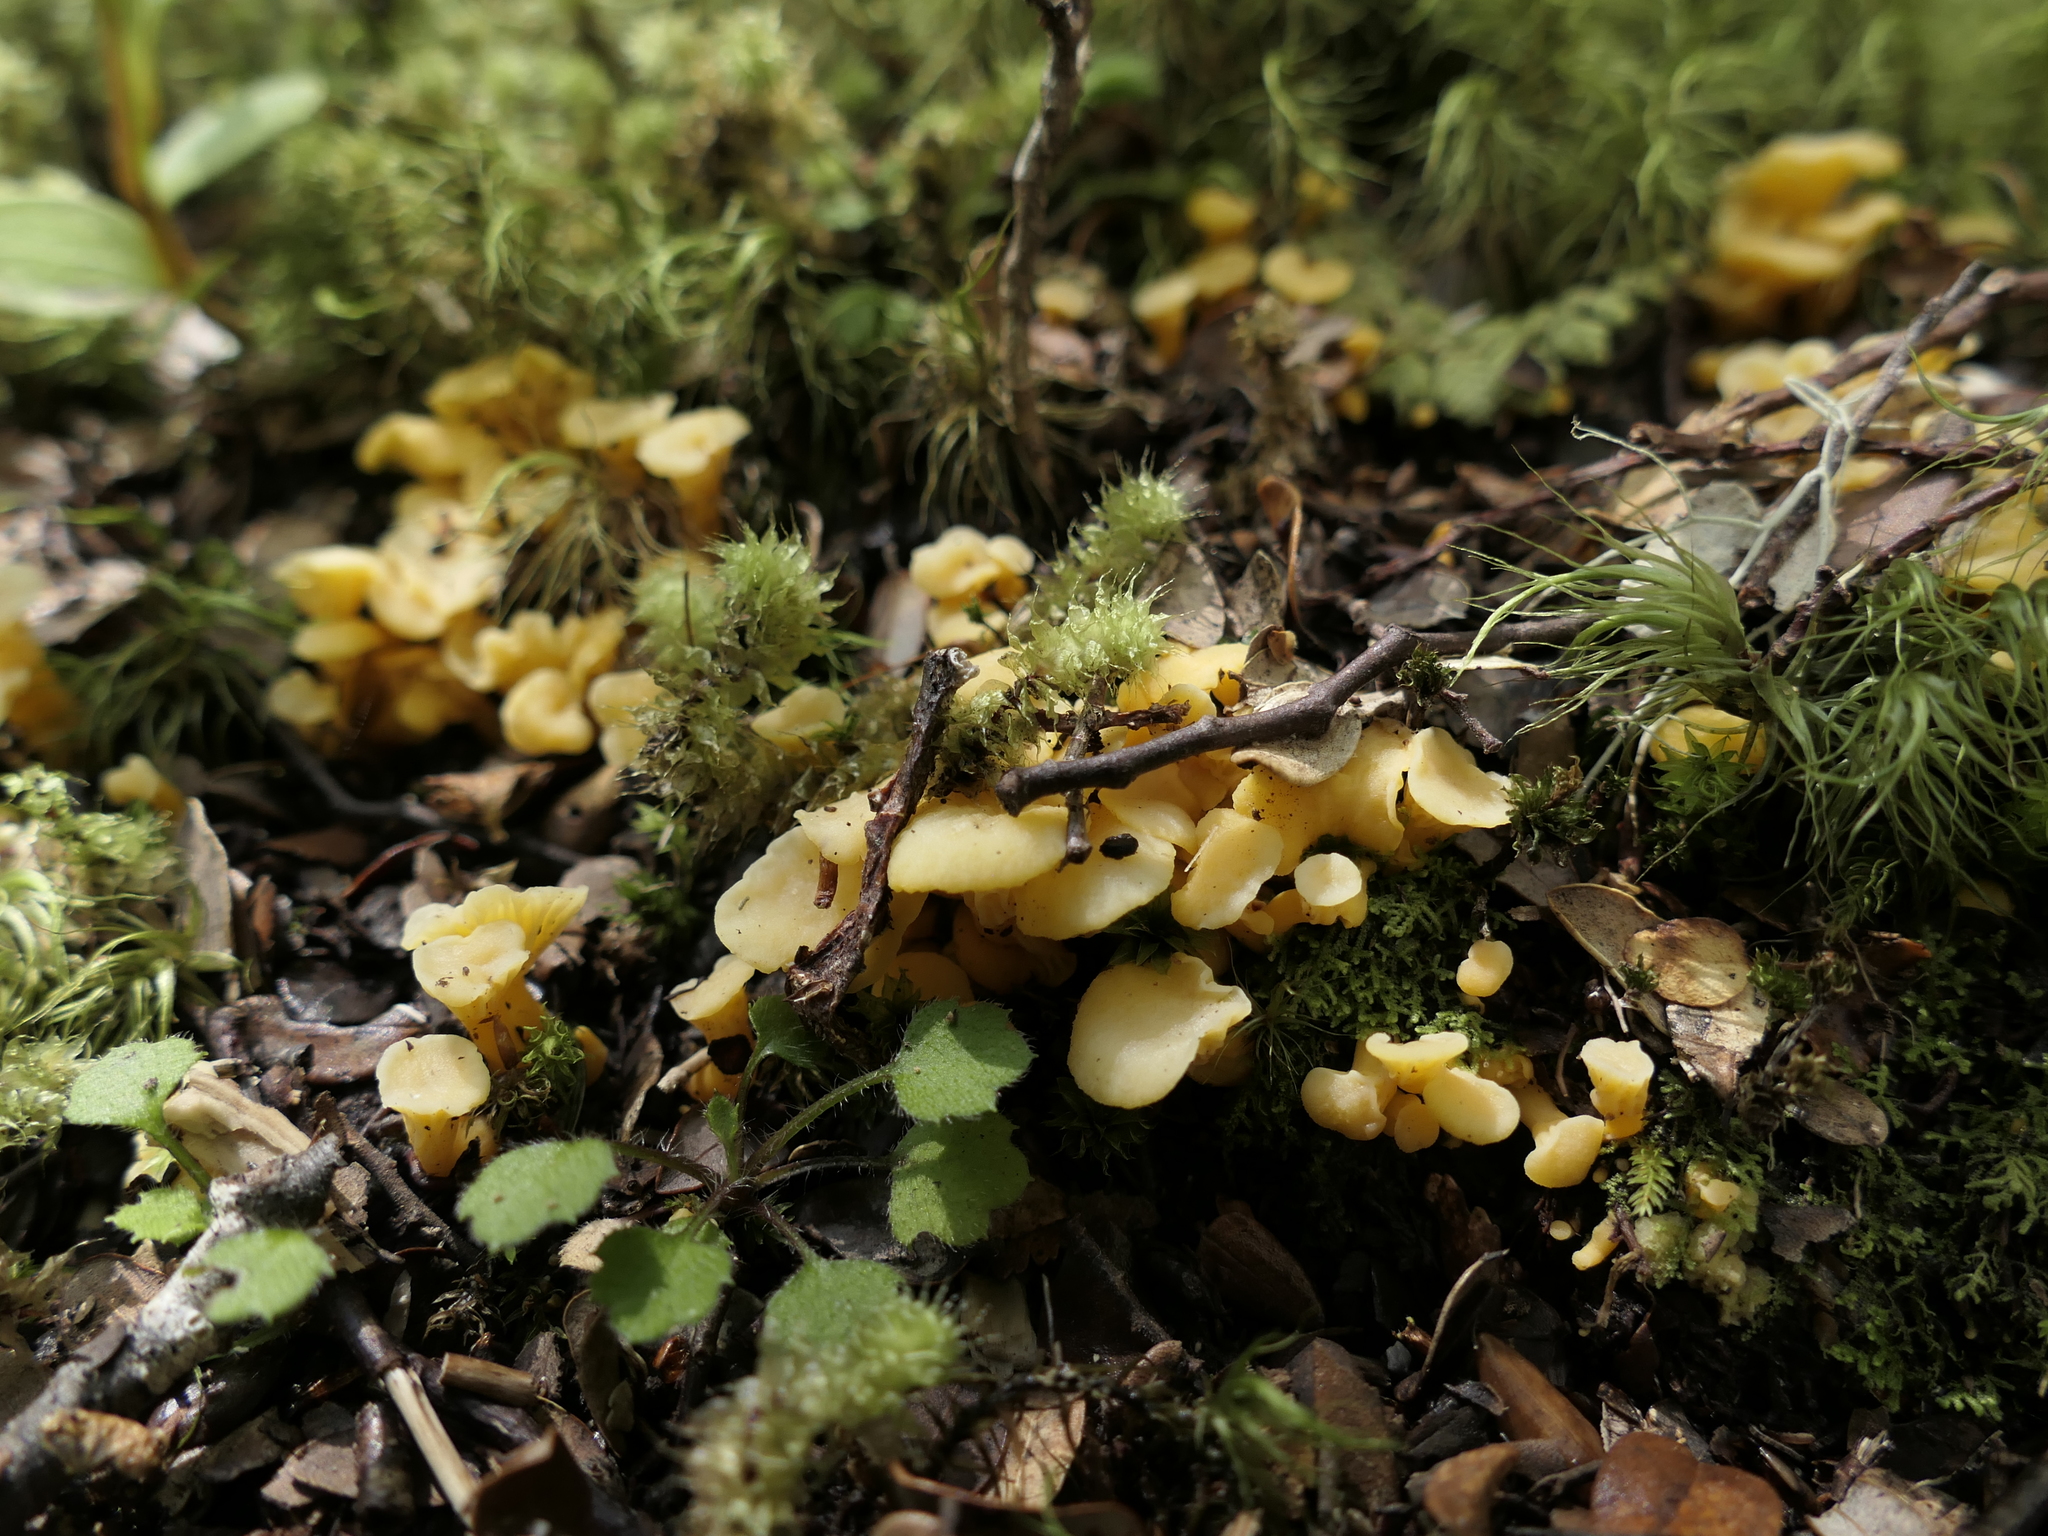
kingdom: Fungi
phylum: Basidiomycota
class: Agaricomycetes
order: Cantharellales
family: Hydnaceae
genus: Cantharellus
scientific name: Cantharellus wellingtonensis
